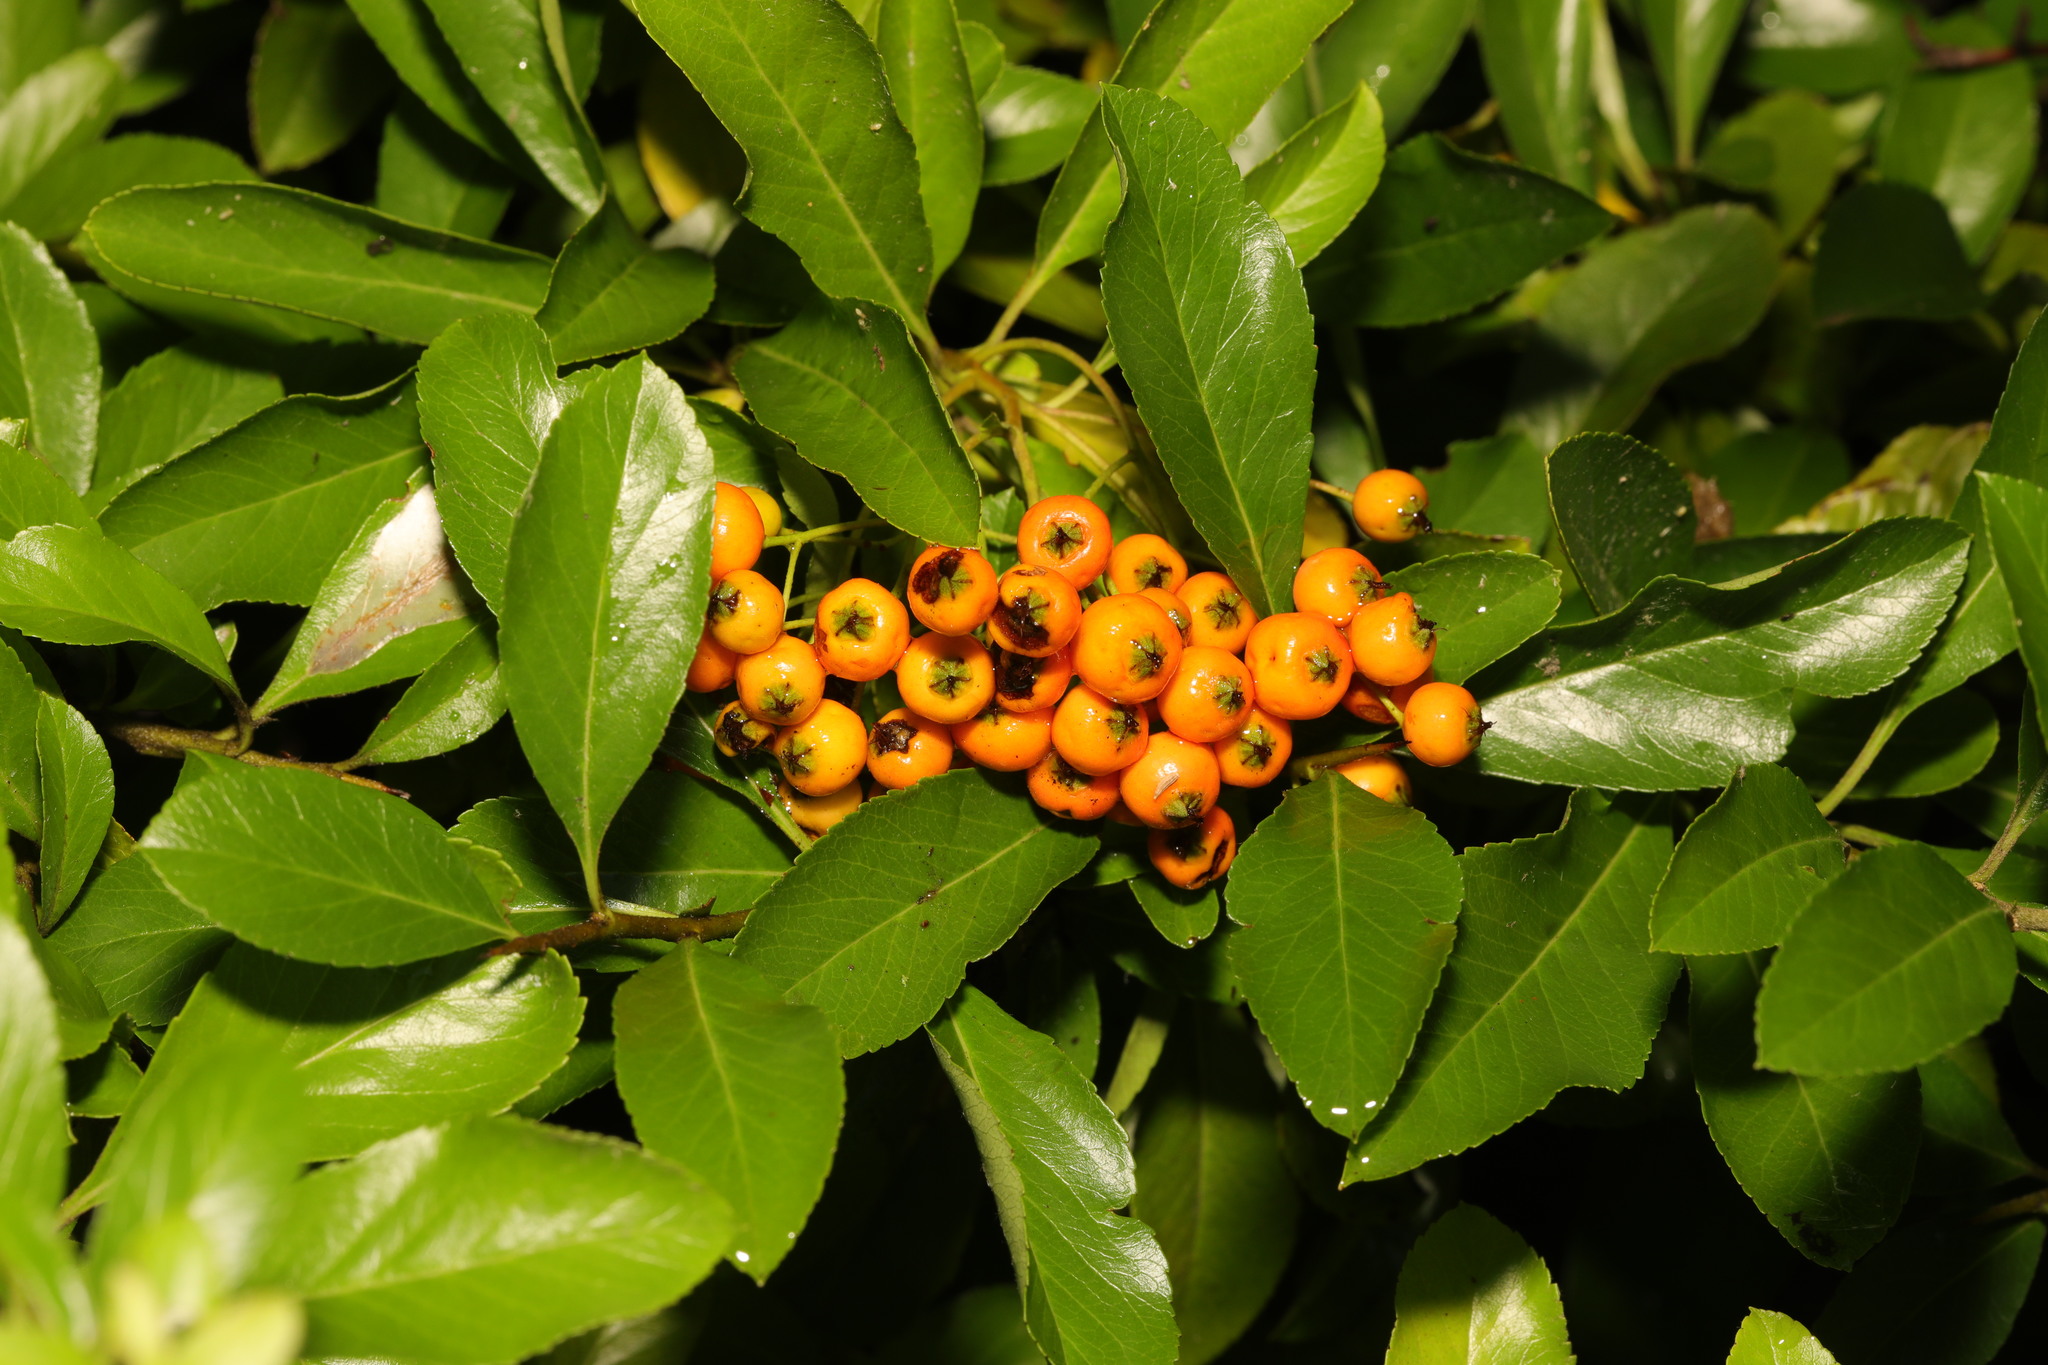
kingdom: Plantae
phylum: Tracheophyta
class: Magnoliopsida
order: Rosales
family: Rosaceae
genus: Pyracantha
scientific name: Pyracantha coccinea
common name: Firethorn
